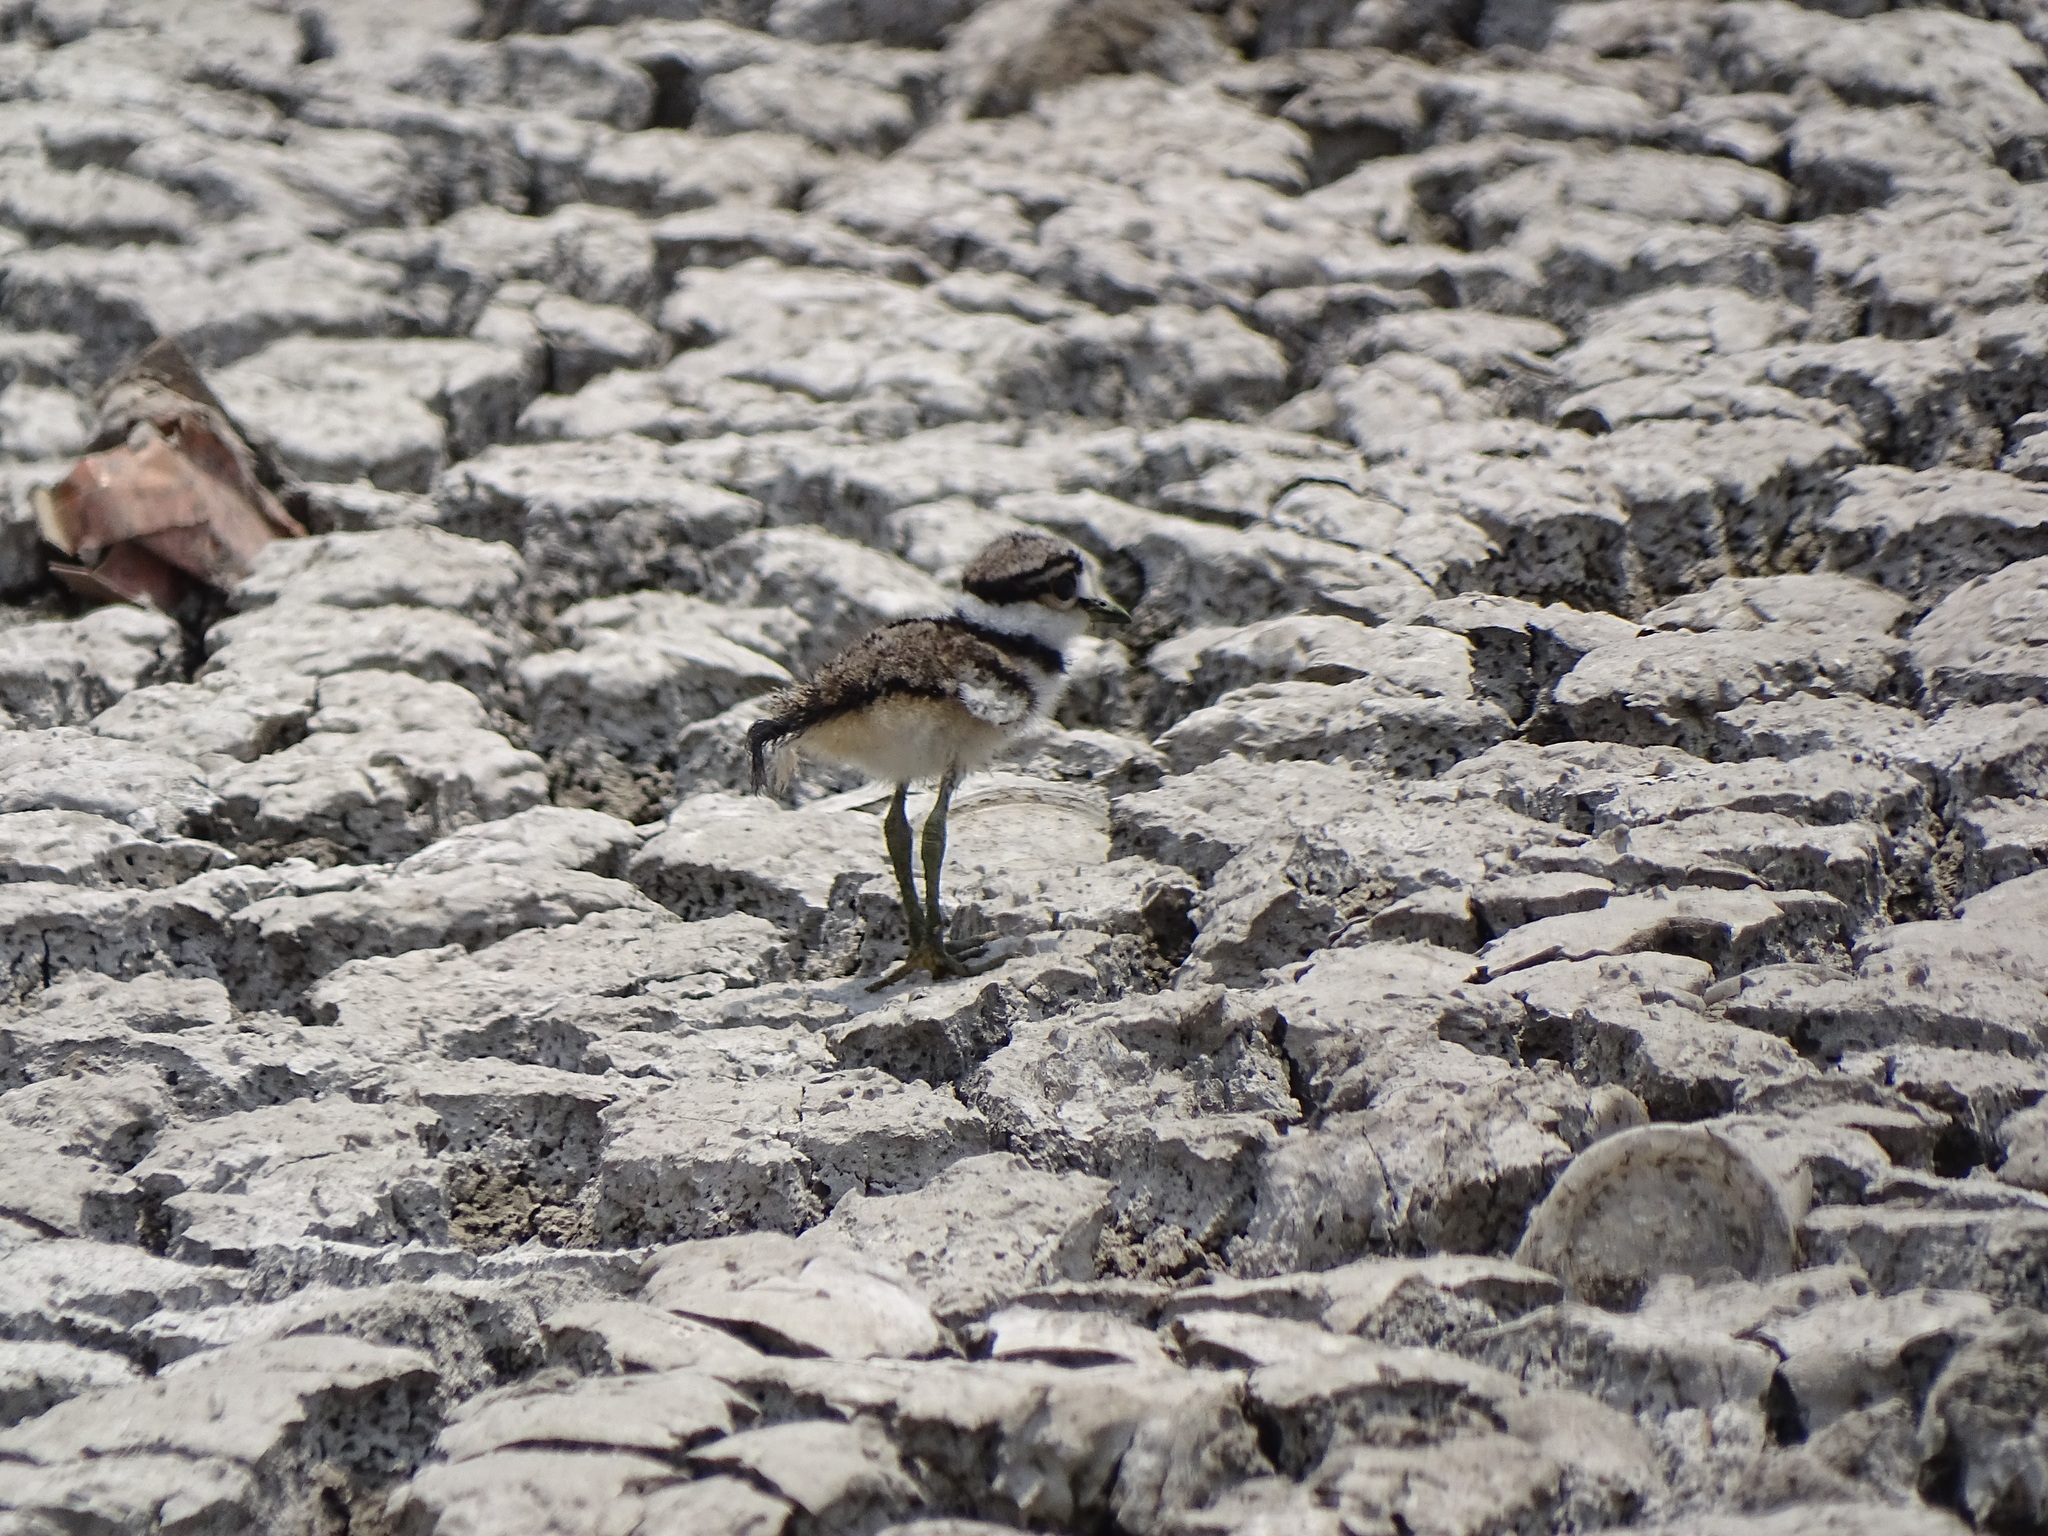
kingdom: Animalia
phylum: Chordata
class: Aves
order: Charadriiformes
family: Charadriidae
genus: Charadrius
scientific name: Charadrius vociferus
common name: Killdeer
